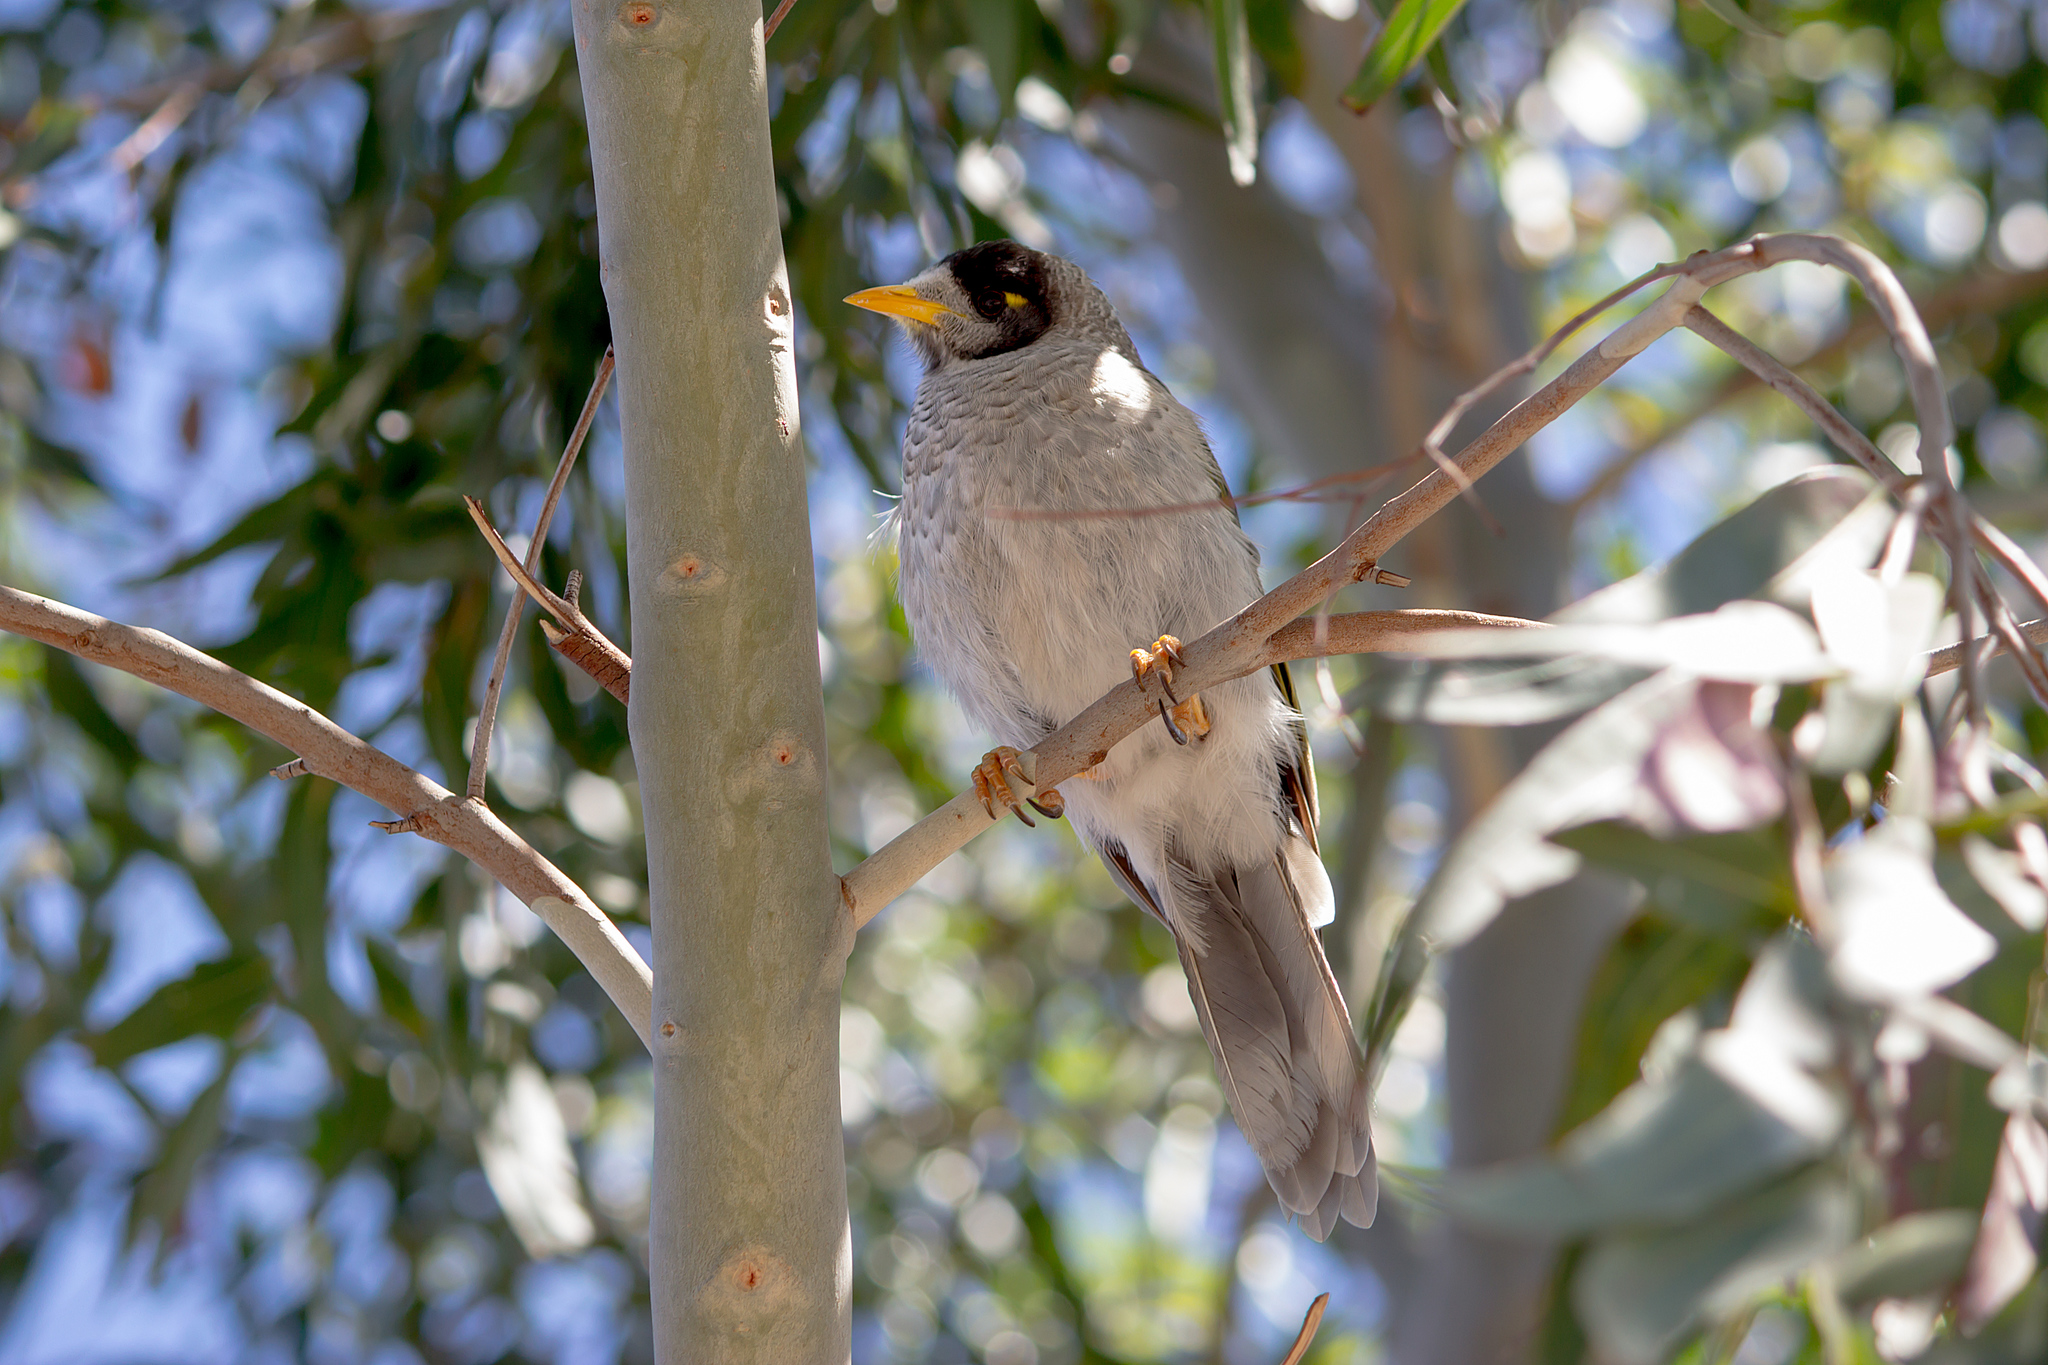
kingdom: Animalia
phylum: Chordata
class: Aves
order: Passeriformes
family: Meliphagidae
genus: Manorina
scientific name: Manorina melanocephala
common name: Noisy miner
